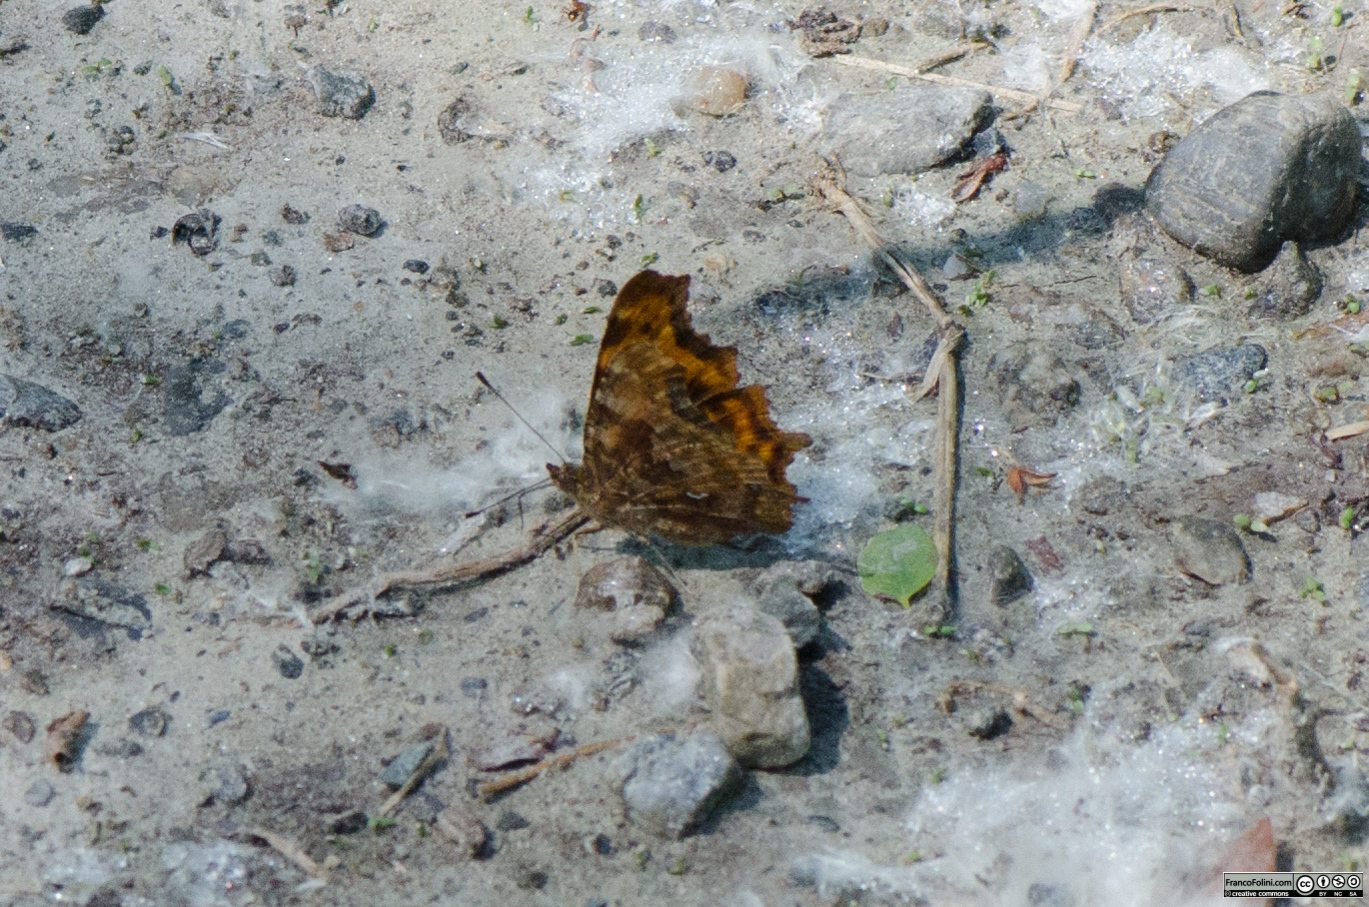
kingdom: Animalia
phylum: Arthropoda
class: Insecta
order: Lepidoptera
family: Nymphalidae
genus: Polygonia
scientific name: Polygonia c-album
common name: Comma
